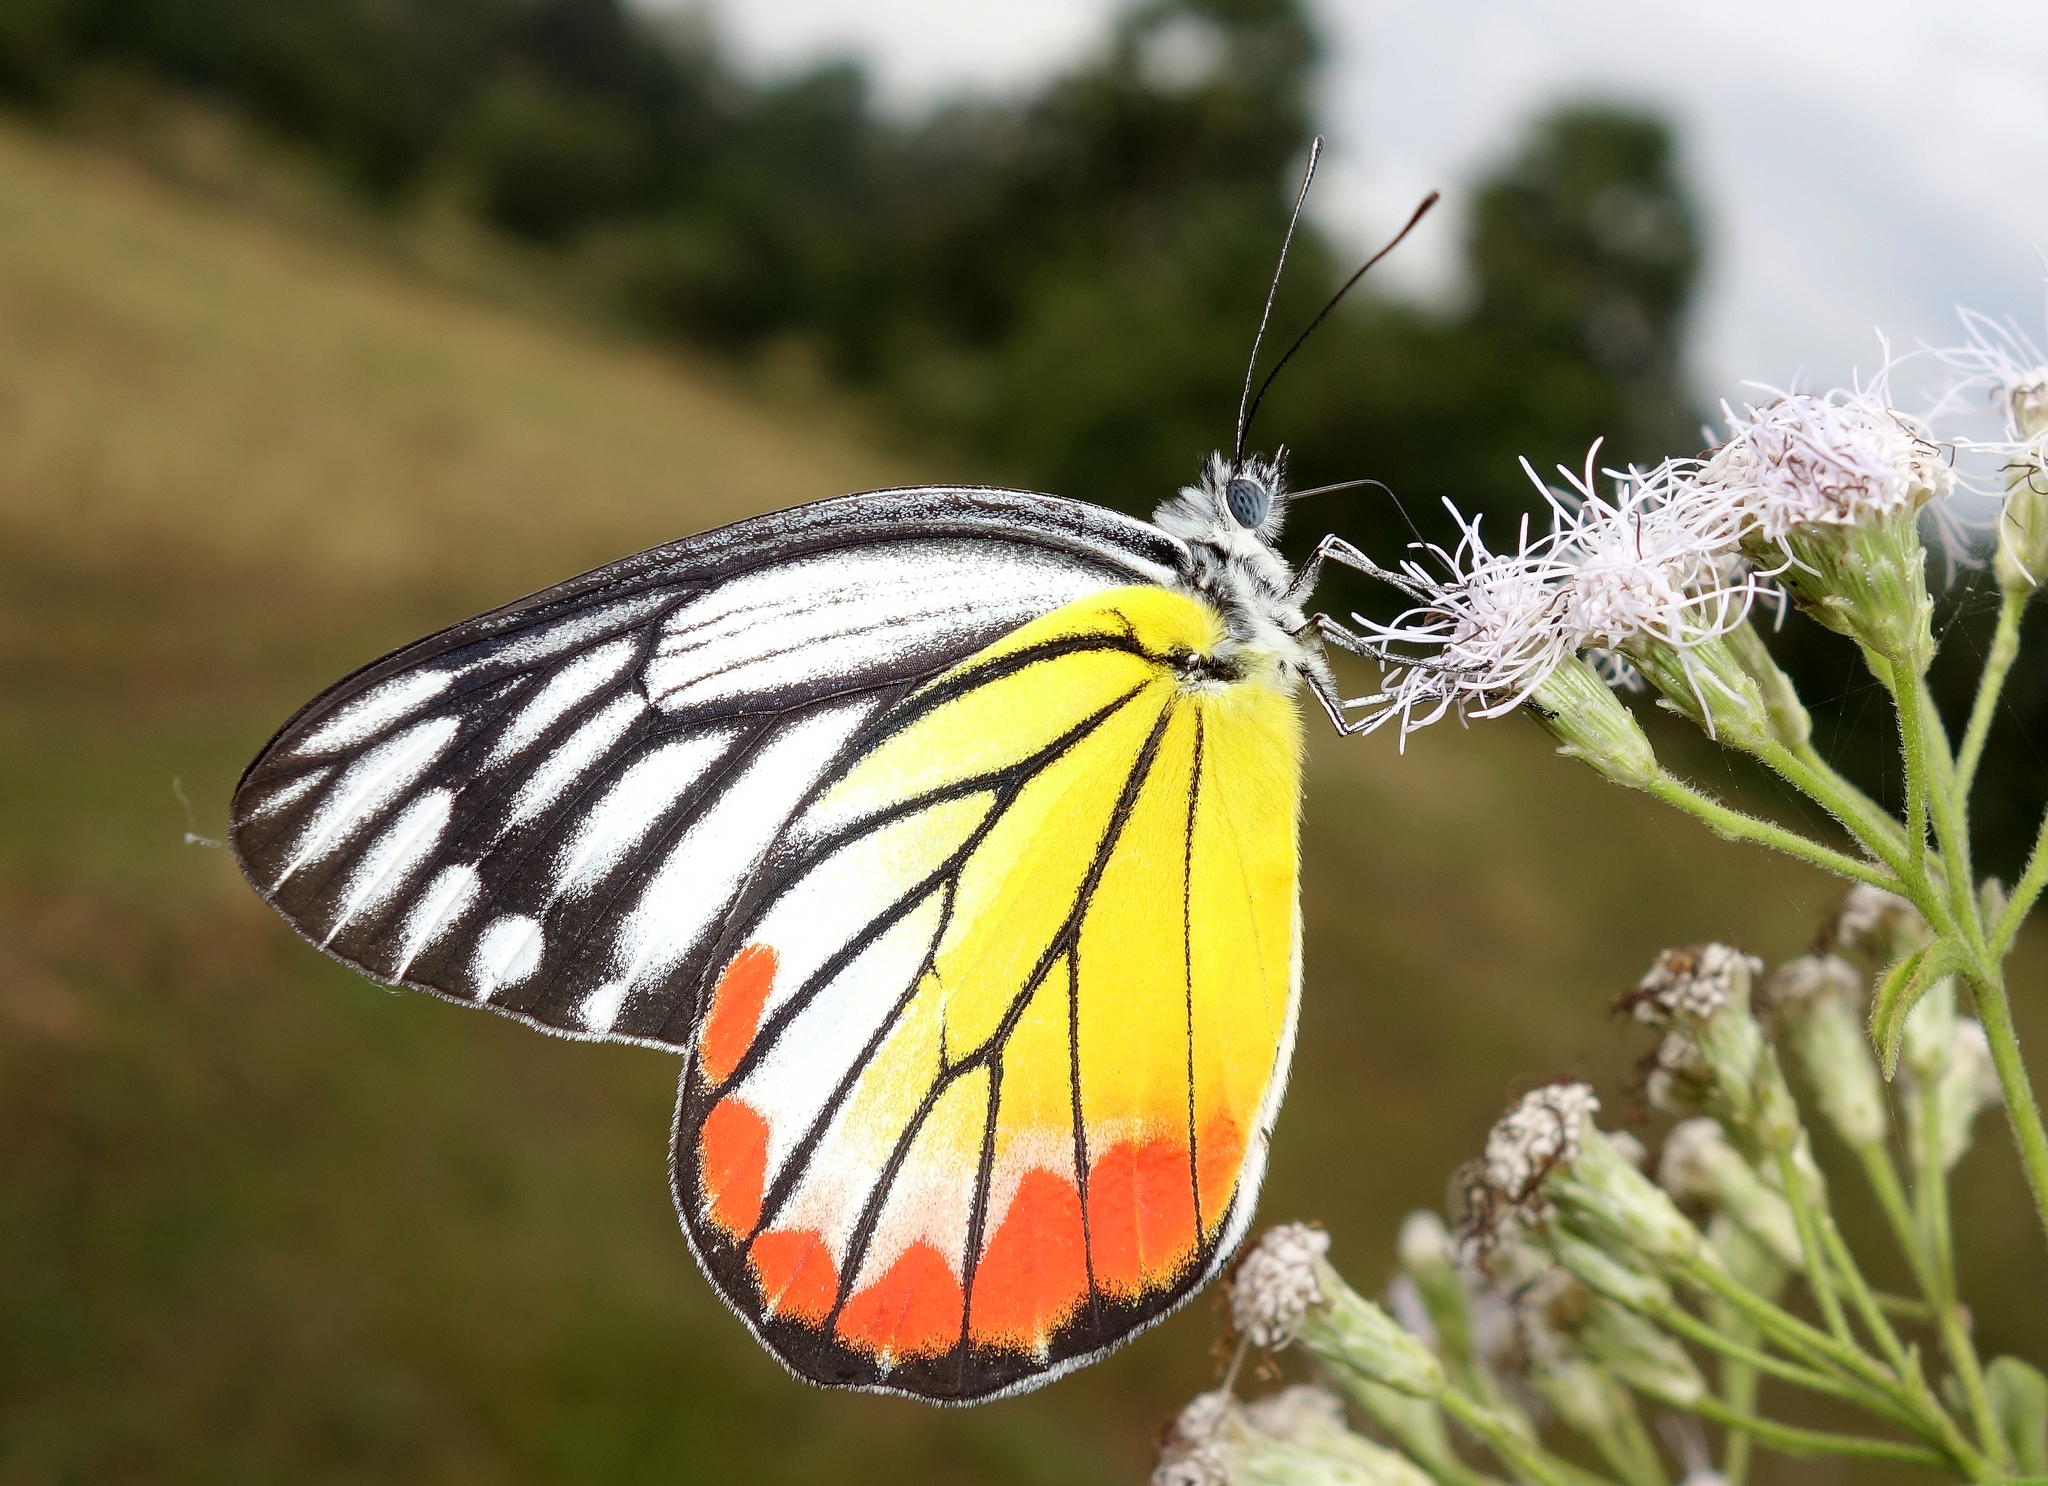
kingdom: Animalia
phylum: Arthropoda
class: Insecta
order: Lepidoptera
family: Pieridae
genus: Delias
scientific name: Delias hyparete
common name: Painted jezebel
